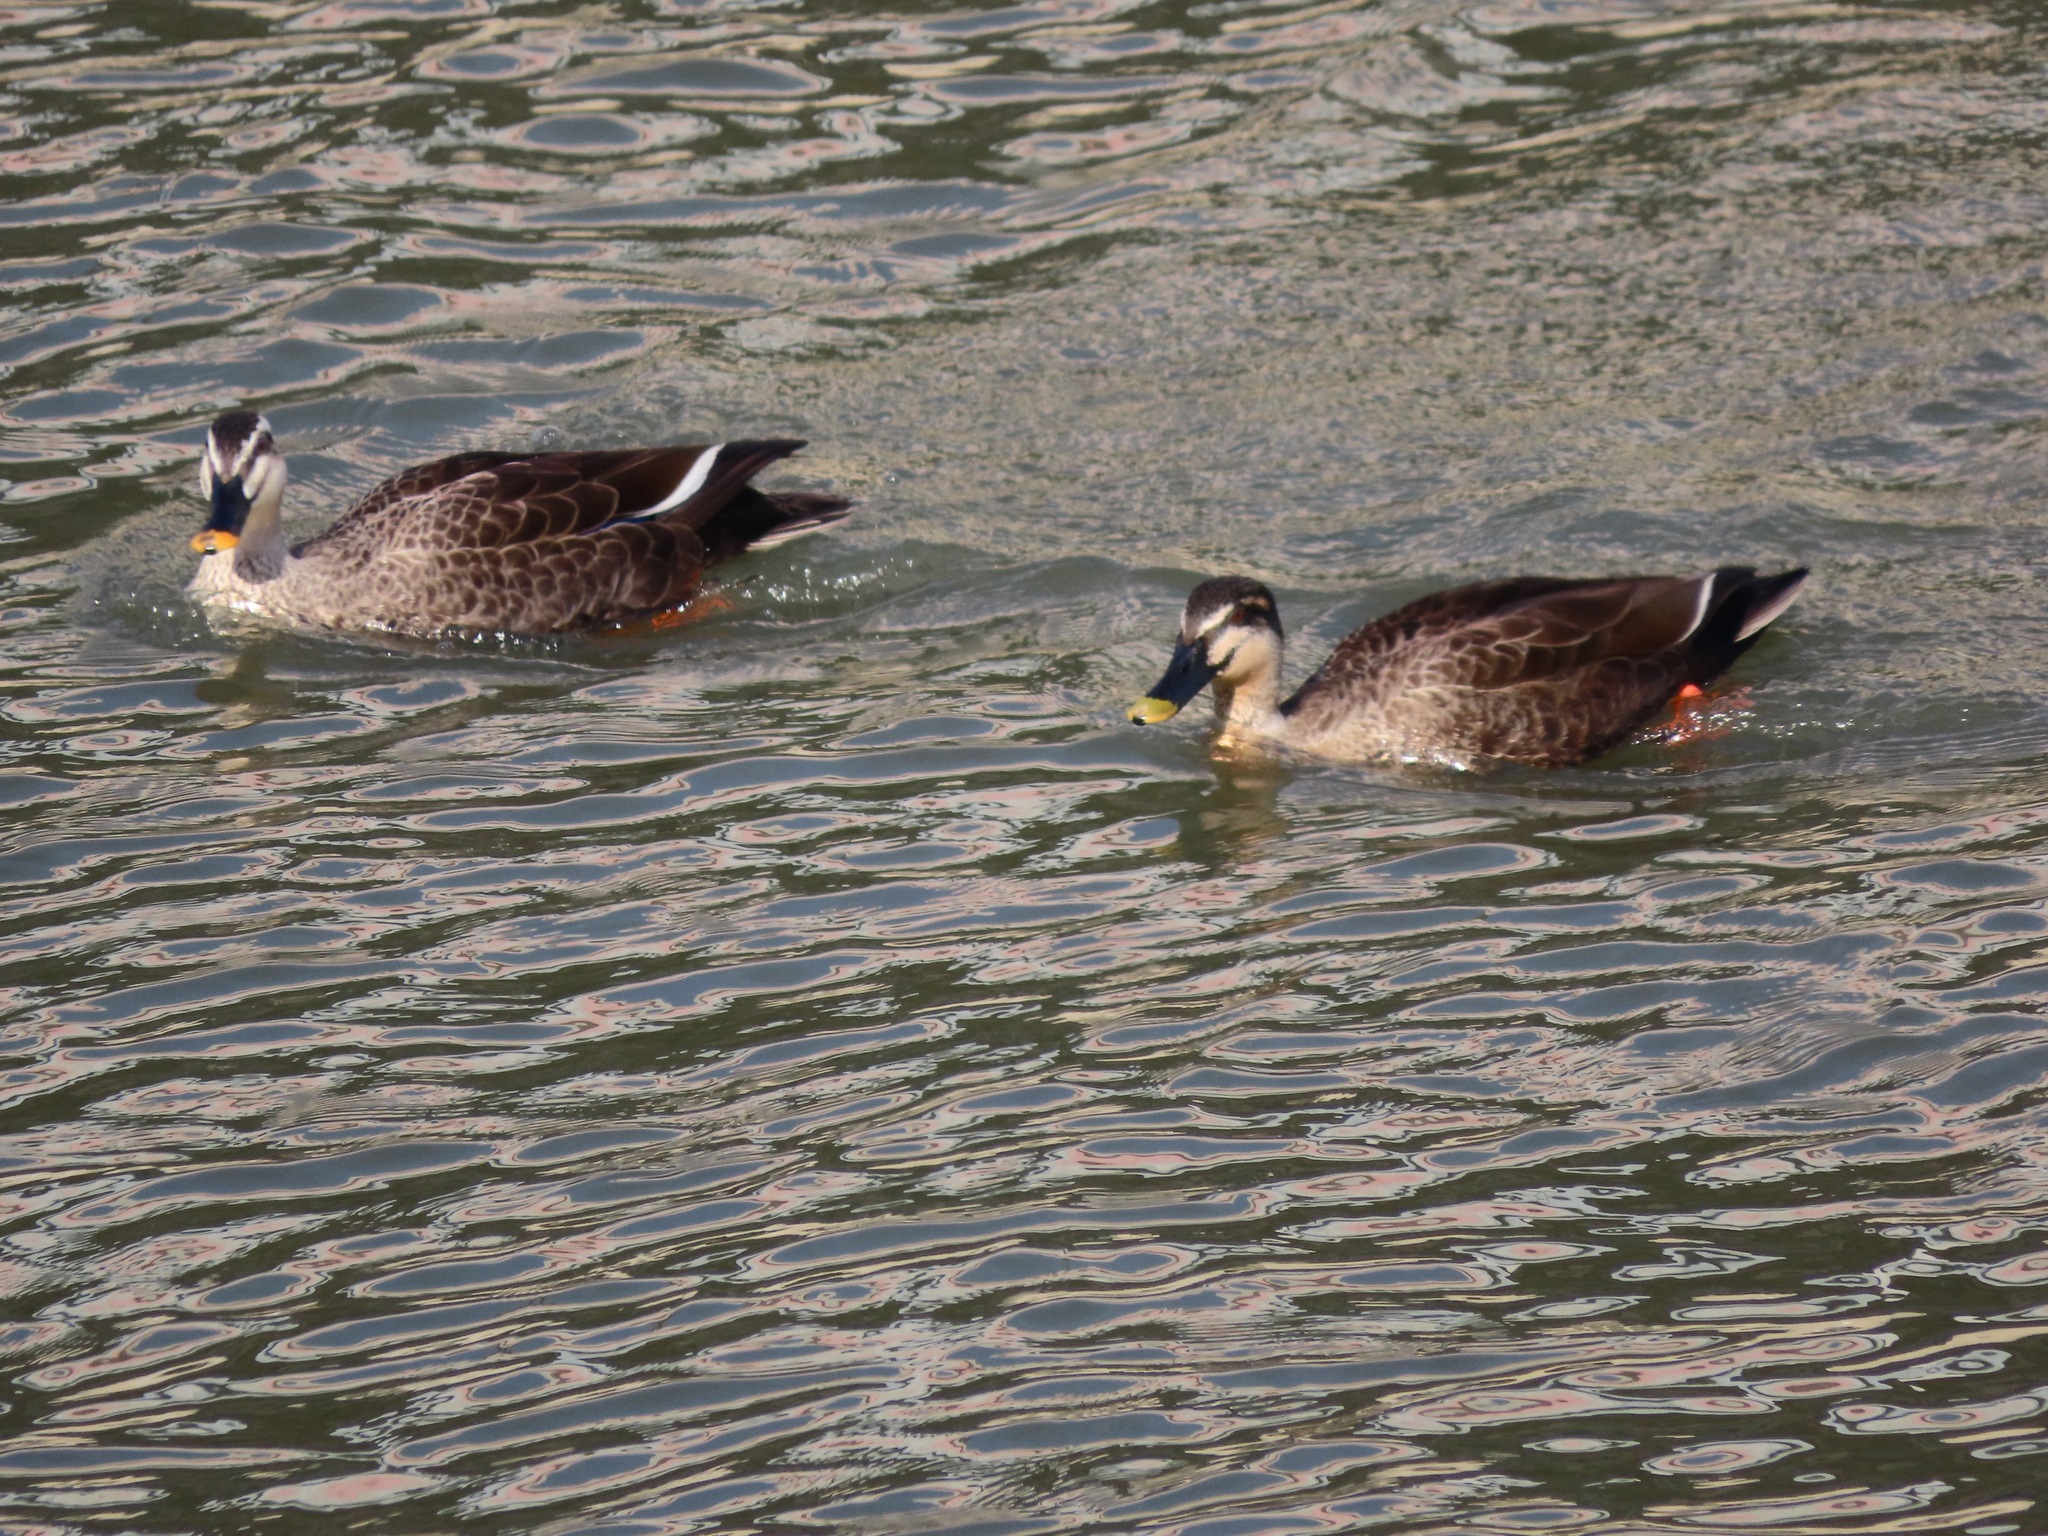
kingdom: Animalia
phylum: Chordata
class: Aves
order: Anseriformes
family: Anatidae
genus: Anas
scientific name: Anas zonorhyncha
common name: Eastern spot-billed duck
